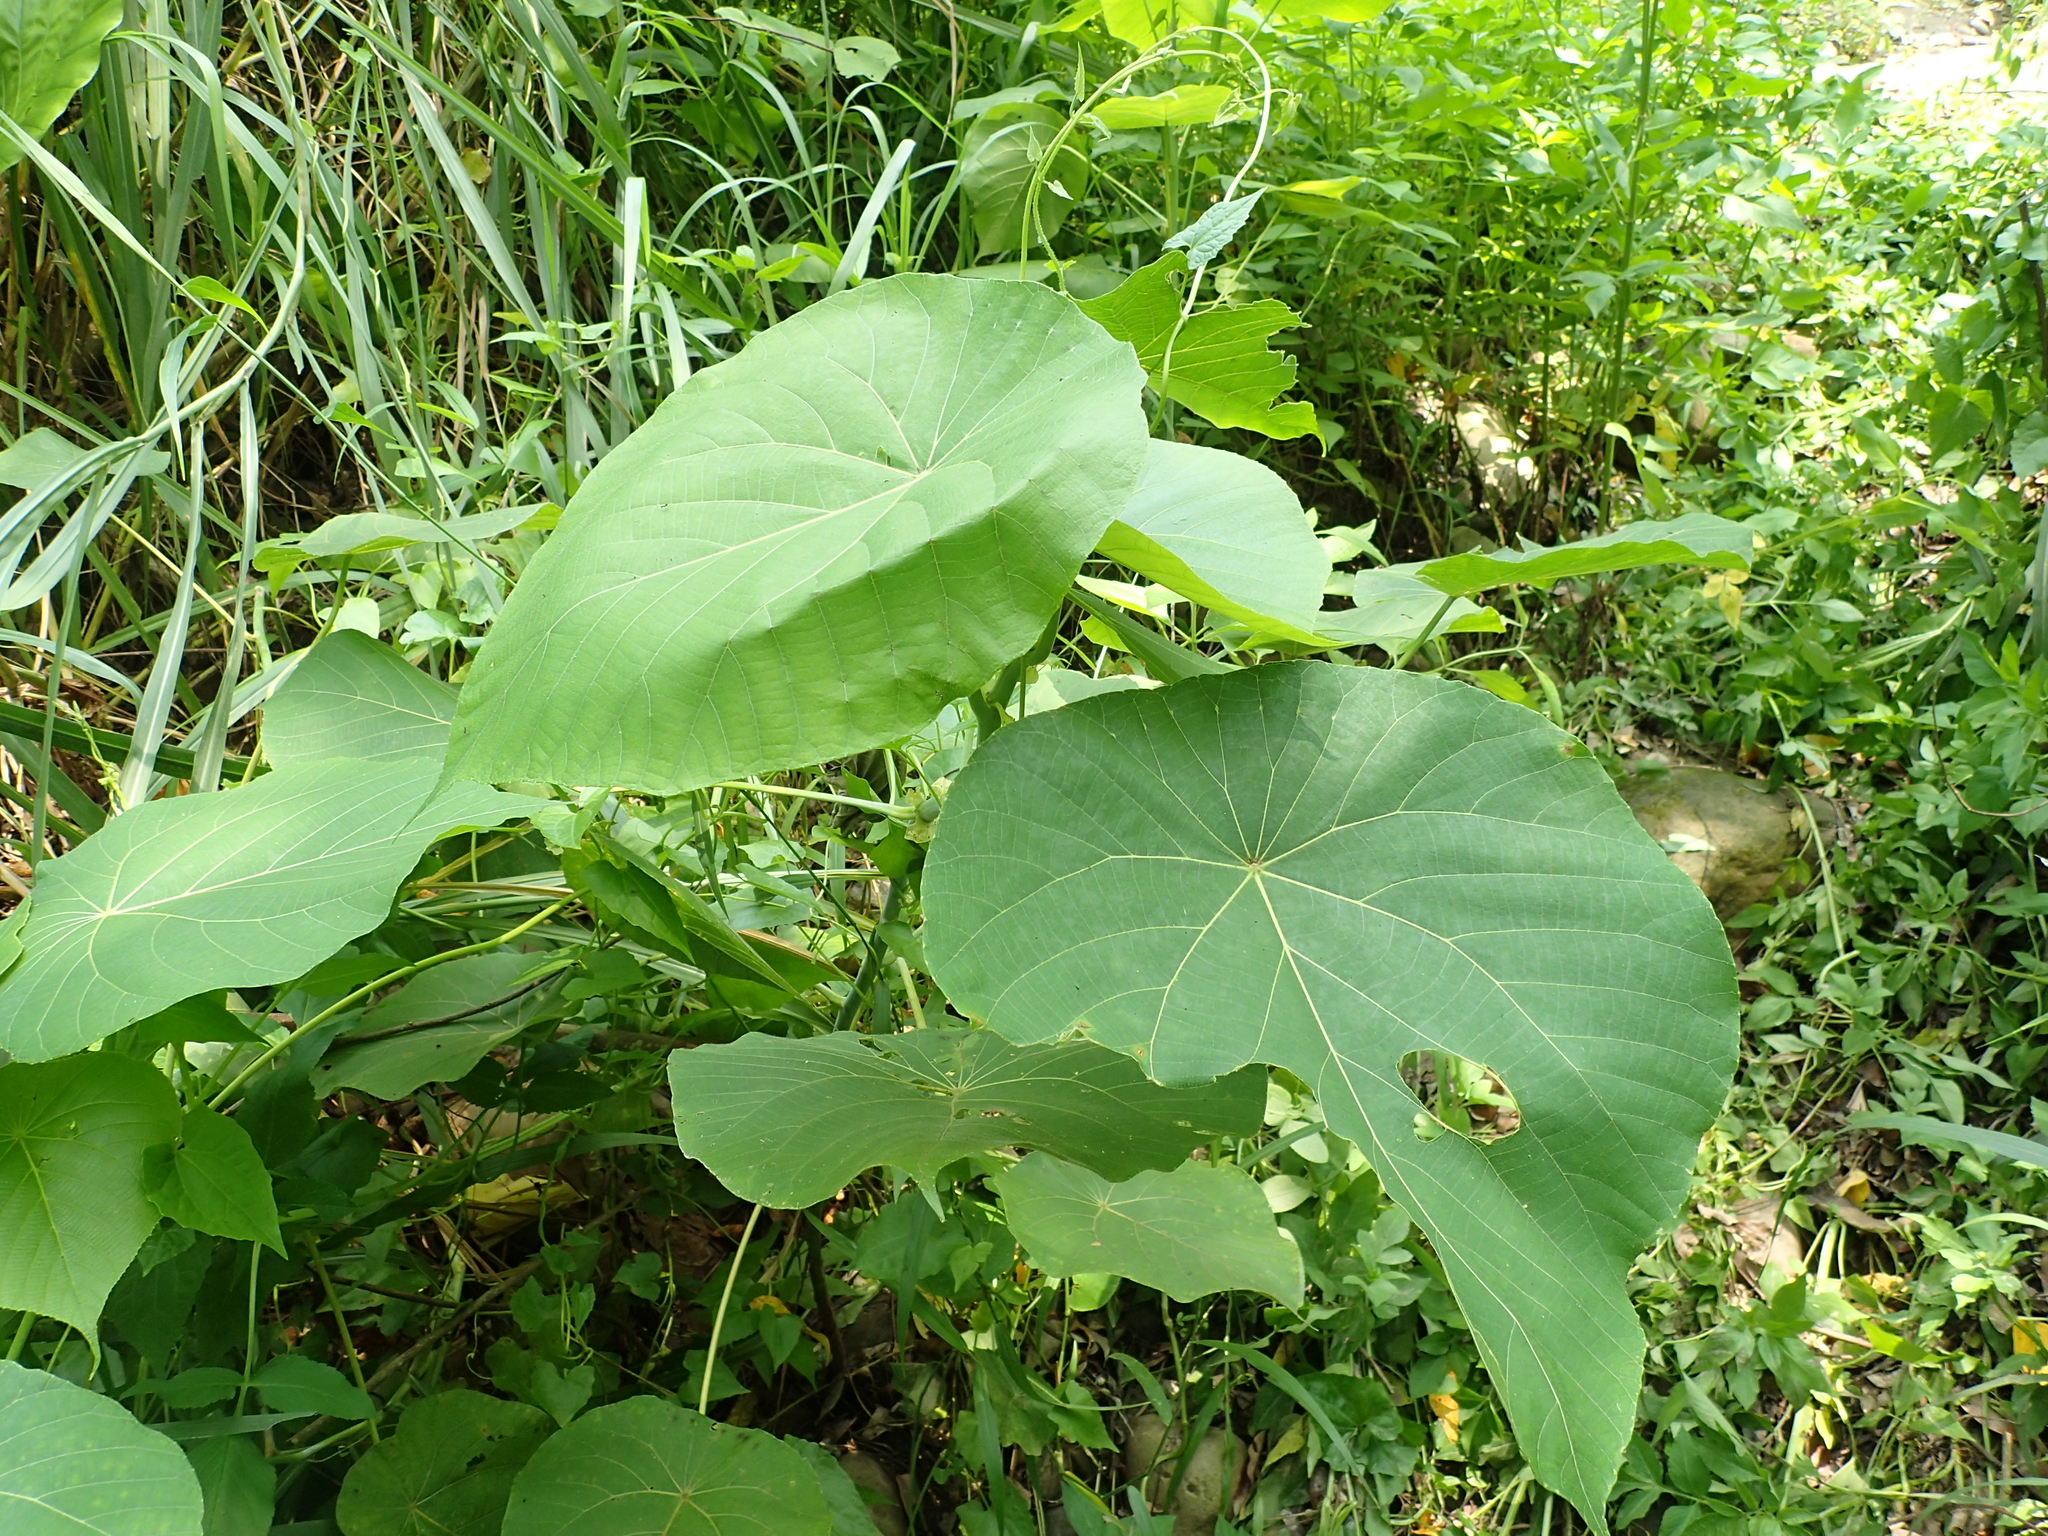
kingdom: Plantae
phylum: Tracheophyta
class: Magnoliopsida
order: Malpighiales
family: Euphorbiaceae
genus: Macaranga
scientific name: Macaranga tanarius
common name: Parasol leaf tree
